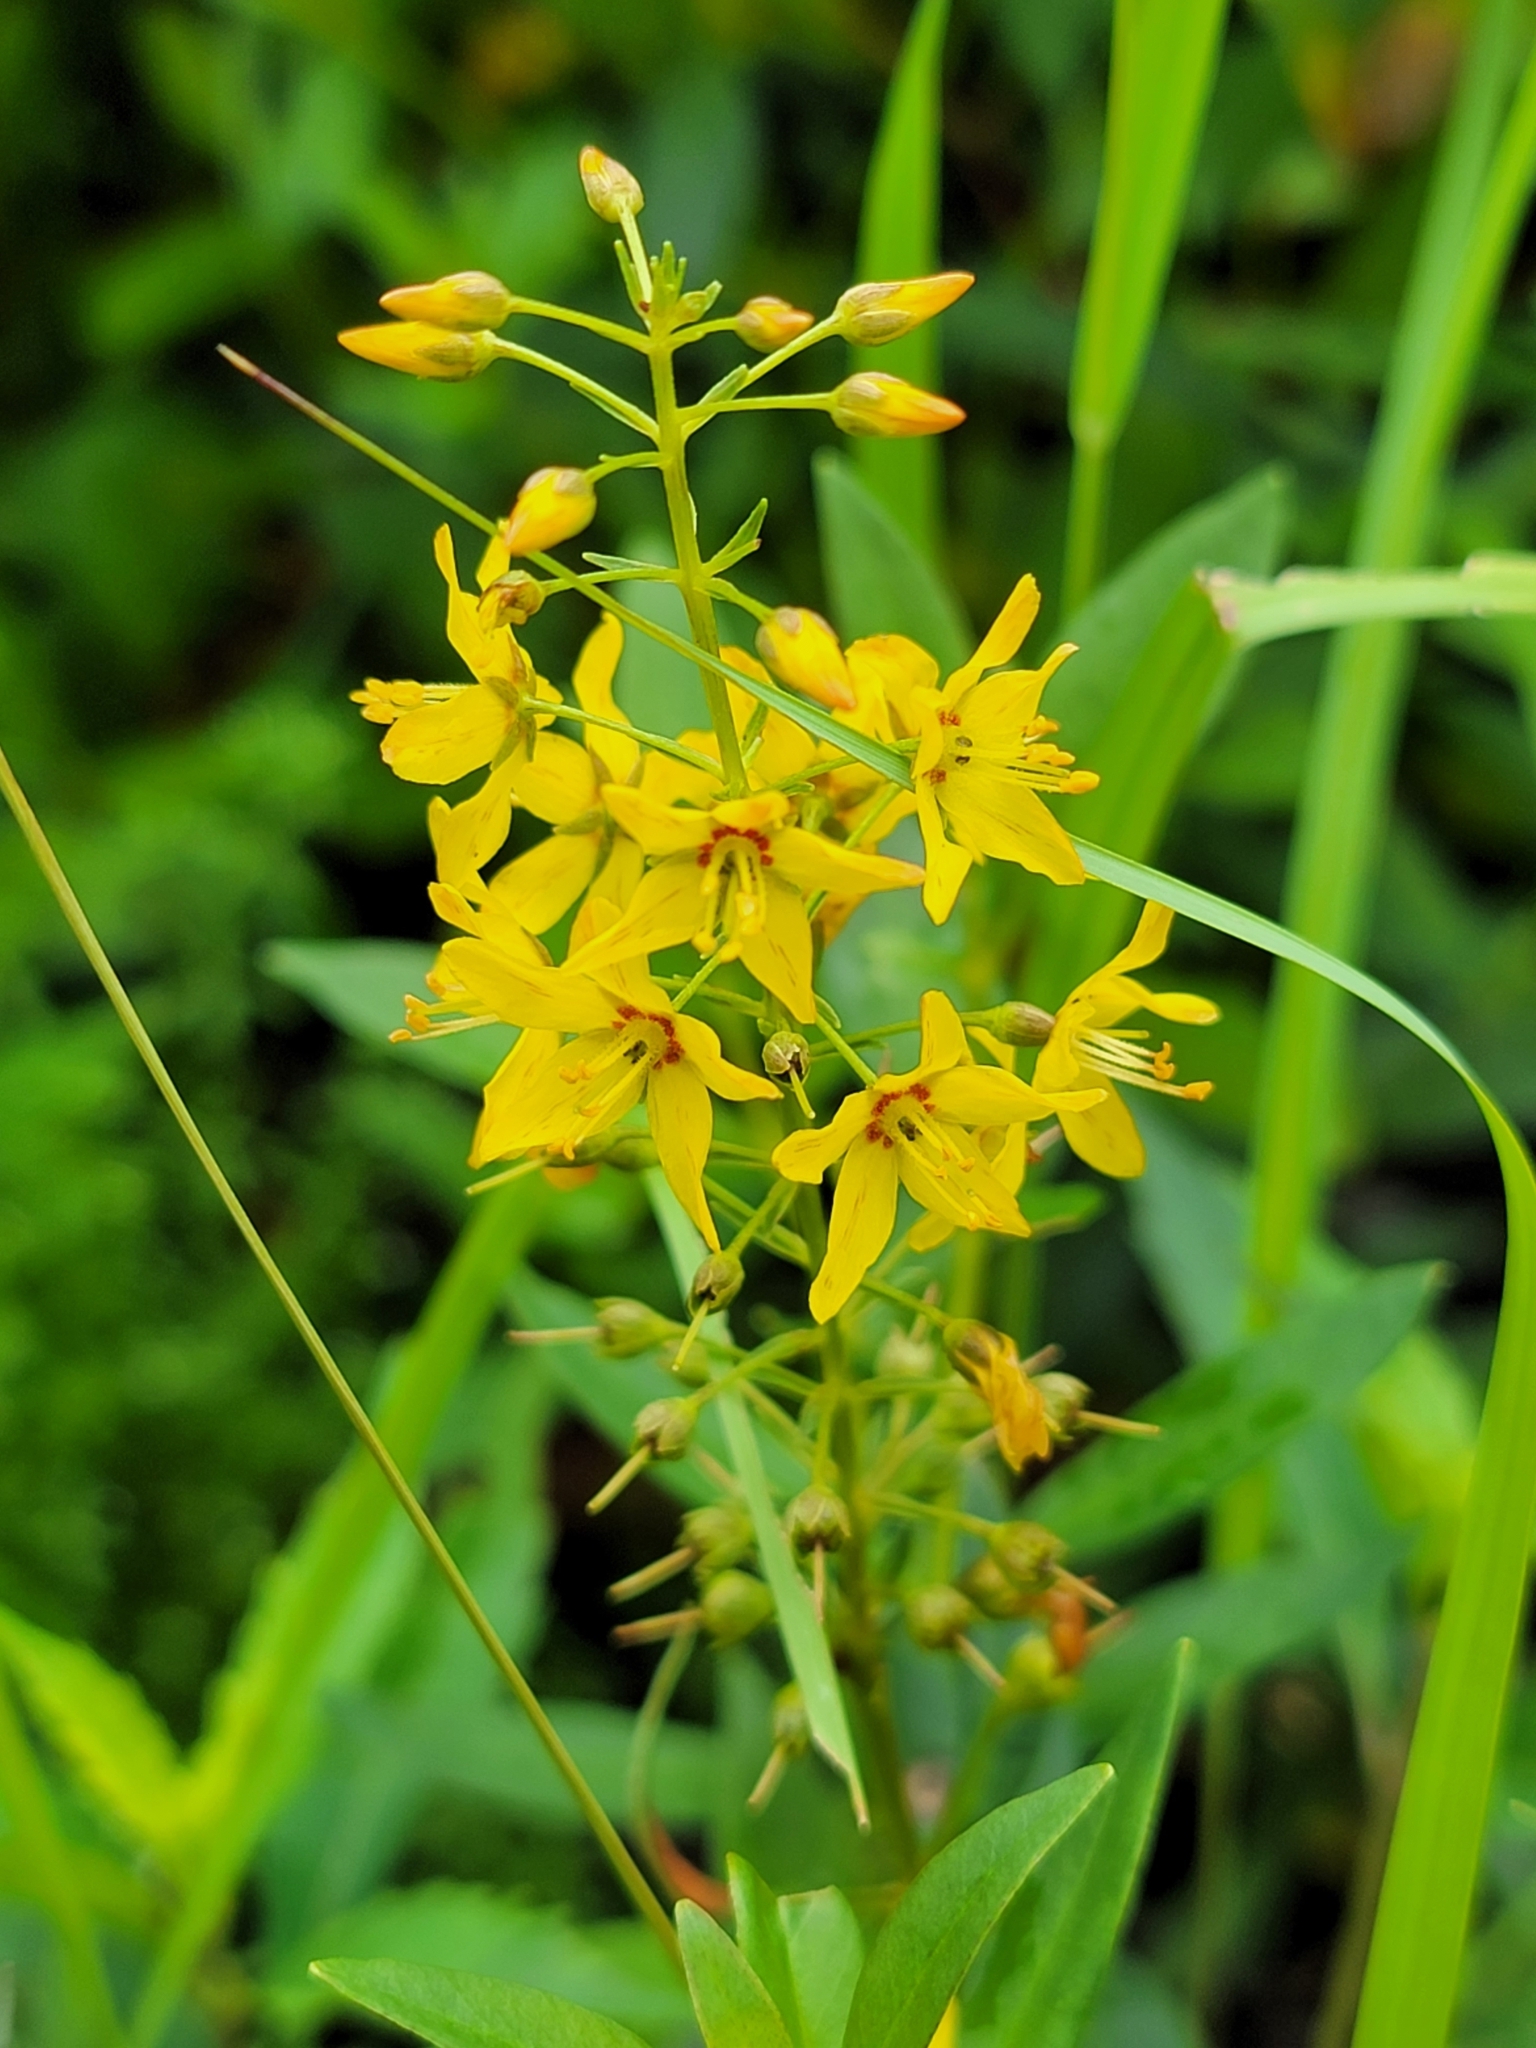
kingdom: Plantae
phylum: Tracheophyta
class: Magnoliopsida
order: Ericales
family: Primulaceae
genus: Lysimachia
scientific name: Lysimachia terrestris
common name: Lake loosestrife
